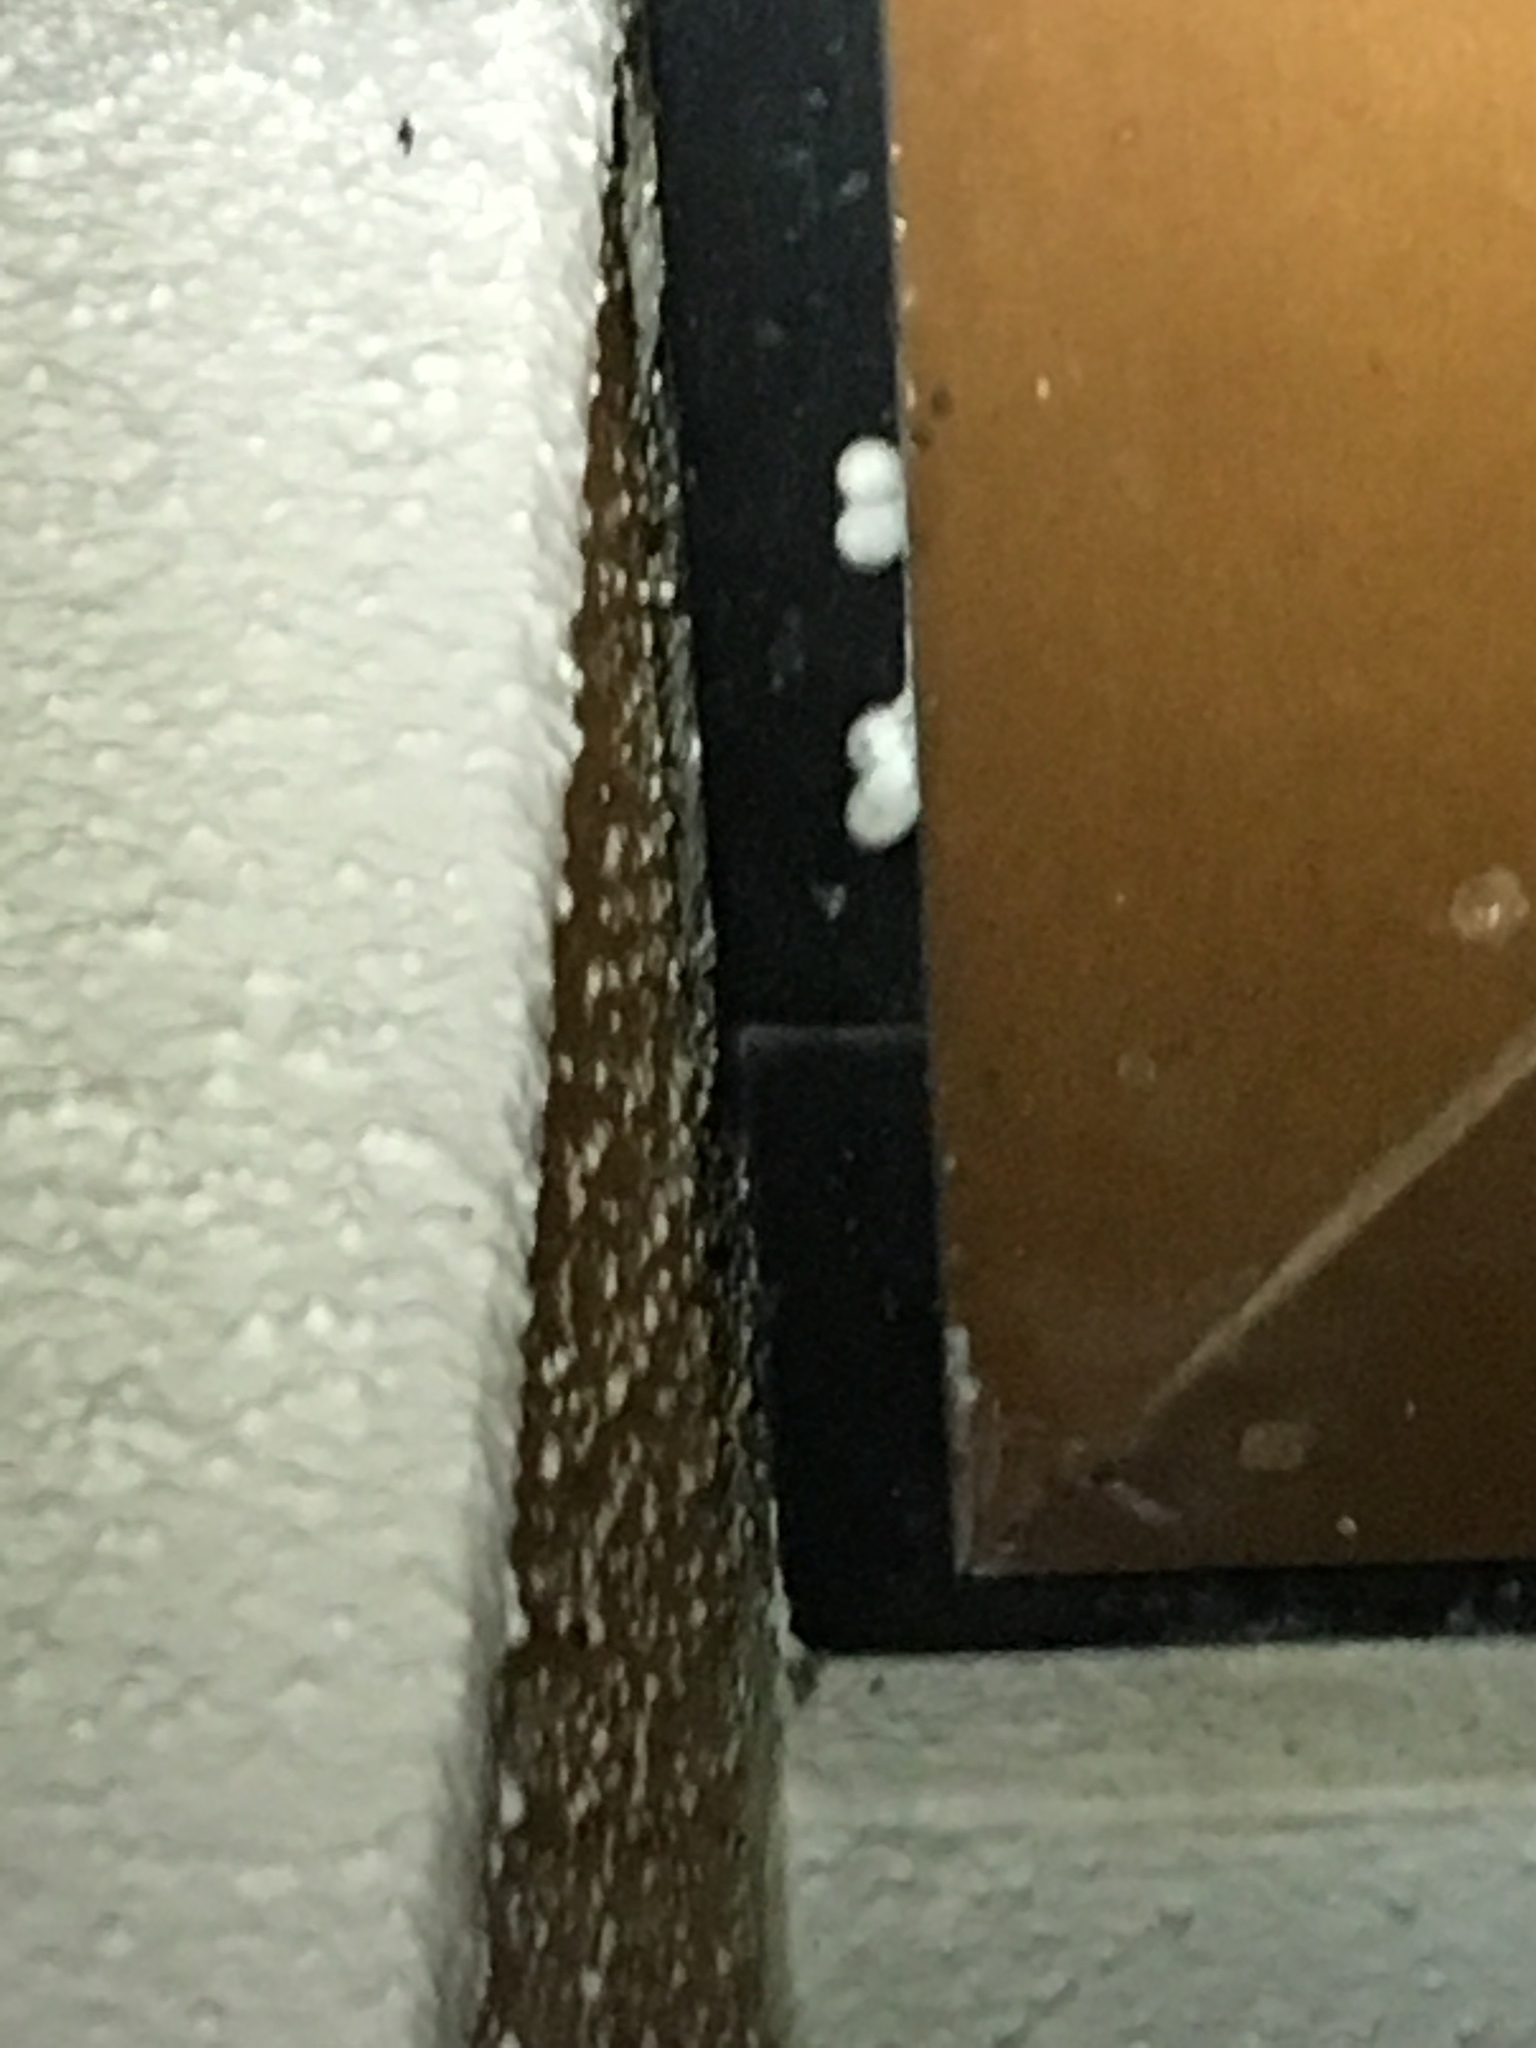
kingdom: Animalia
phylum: Chordata
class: Squamata
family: Gekkonidae
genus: Lepidodactylus
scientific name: Lepidodactylus lugubris
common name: Mourning gecko
